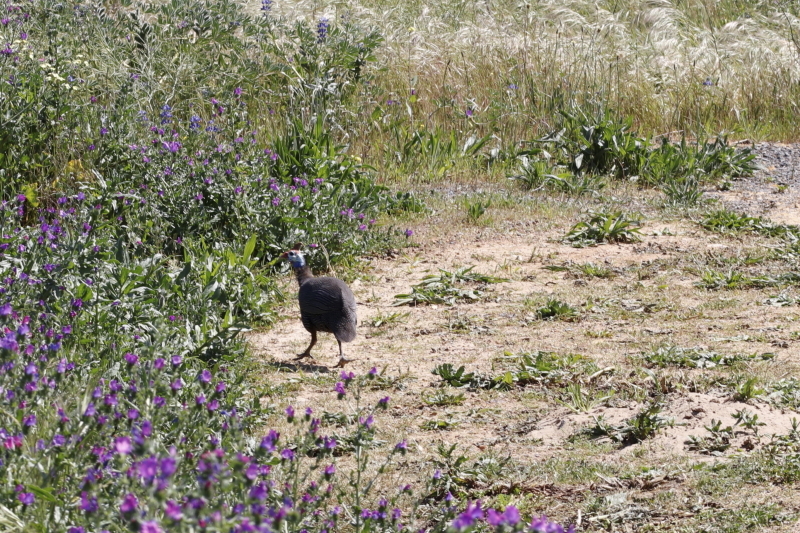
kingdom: Animalia
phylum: Chordata
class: Aves
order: Galliformes
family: Numididae
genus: Numida
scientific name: Numida meleagris
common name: Helmeted guineafowl
